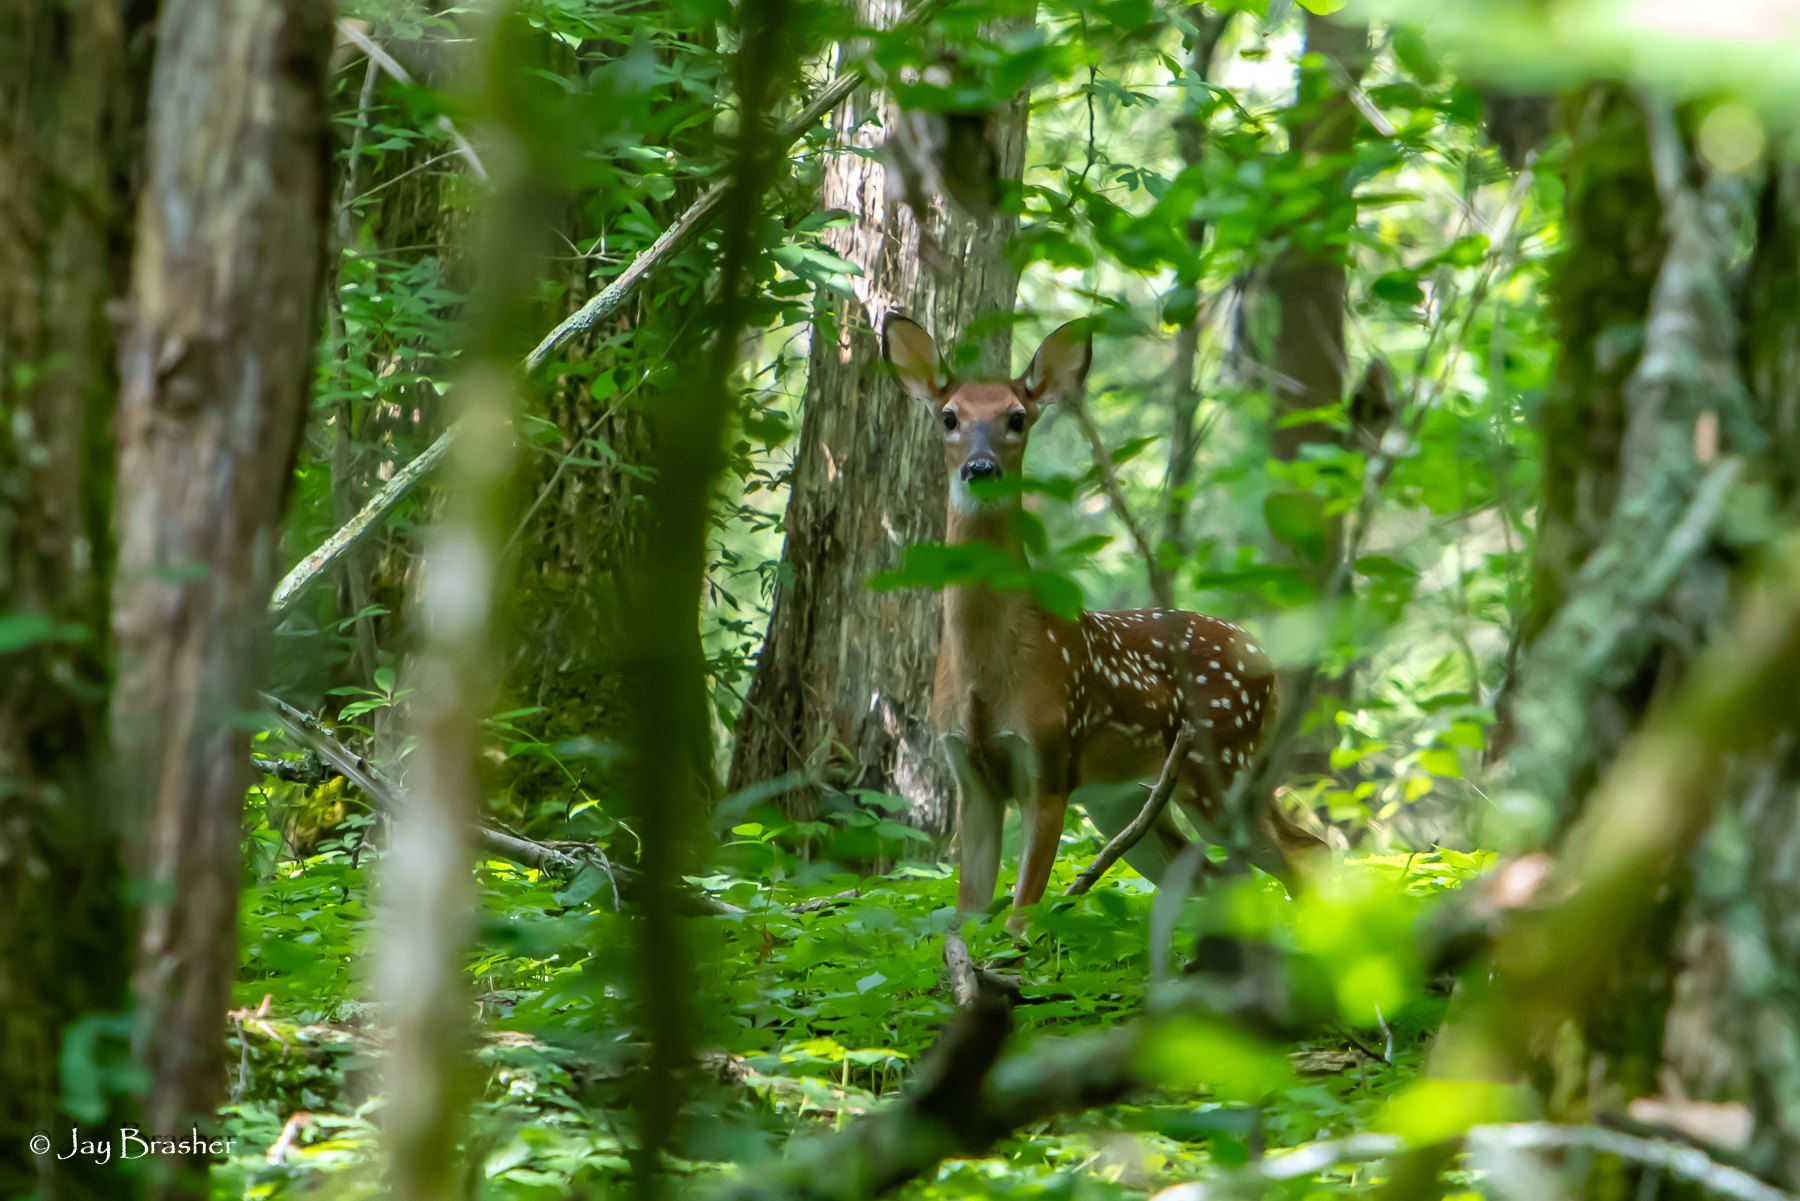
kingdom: Animalia
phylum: Chordata
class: Mammalia
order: Artiodactyla
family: Cervidae
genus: Odocoileus
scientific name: Odocoileus virginianus
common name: White-tailed deer
